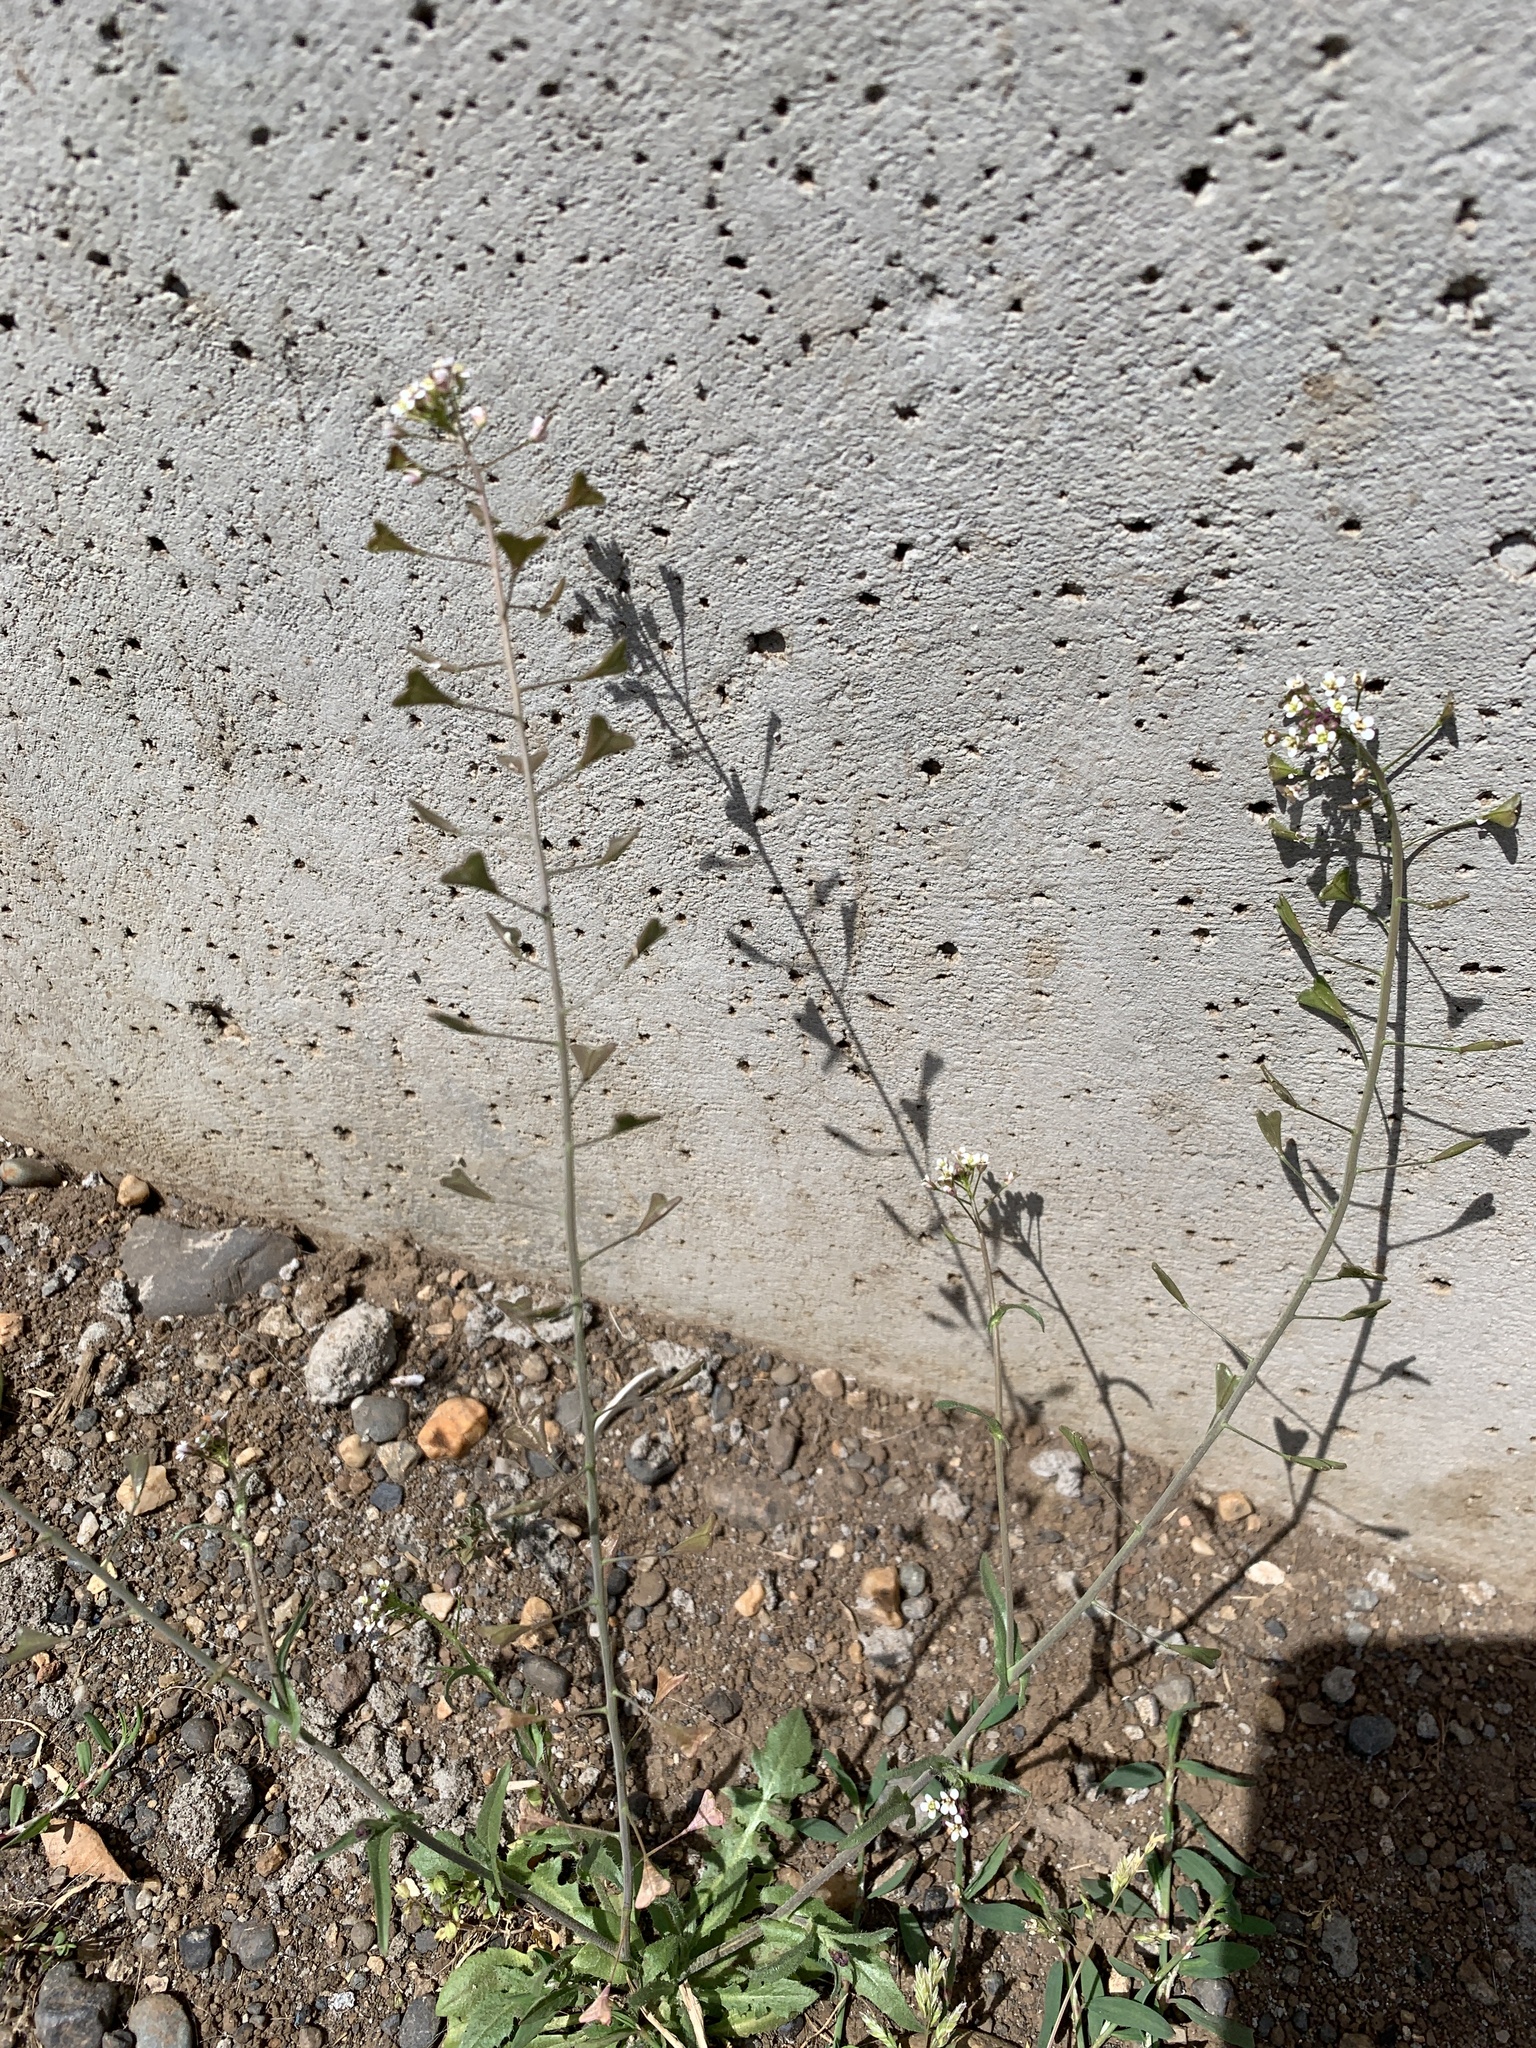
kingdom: Plantae
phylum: Tracheophyta
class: Magnoliopsida
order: Brassicales
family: Brassicaceae
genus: Capsella
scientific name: Capsella bursa-pastoris
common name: Shepherd's purse
